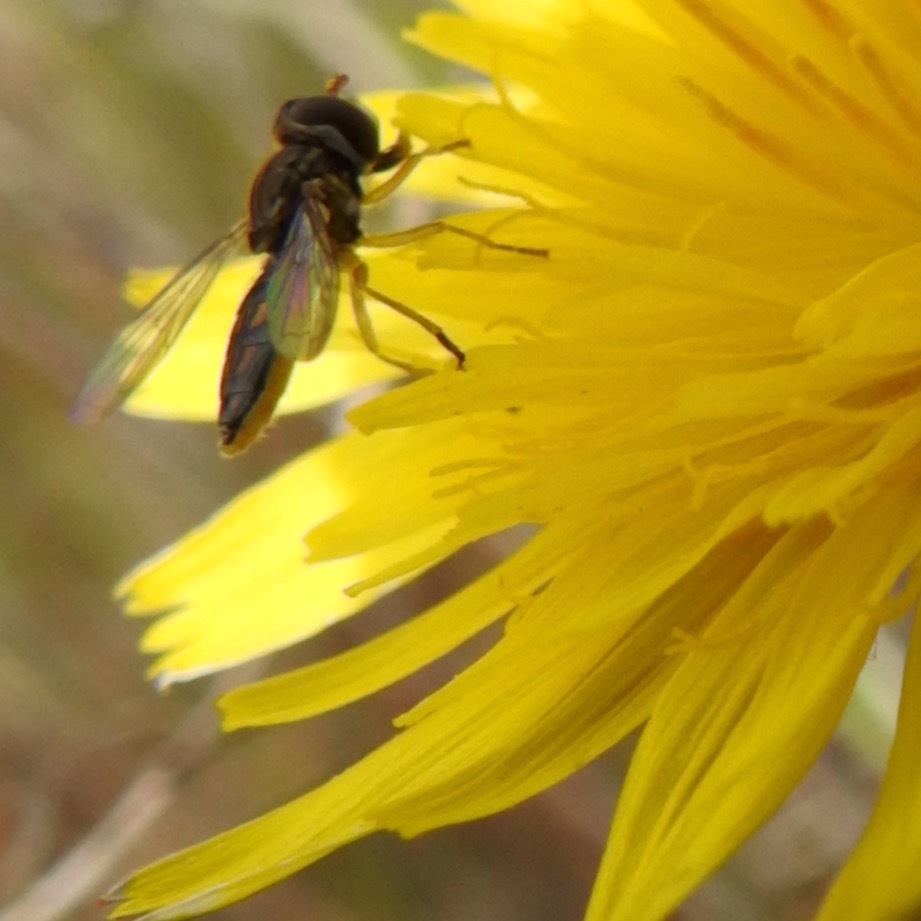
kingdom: Animalia
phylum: Arthropoda
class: Insecta
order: Diptera
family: Syrphidae
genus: Toxomerus
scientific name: Toxomerus marginatus
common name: Syrphid fly
